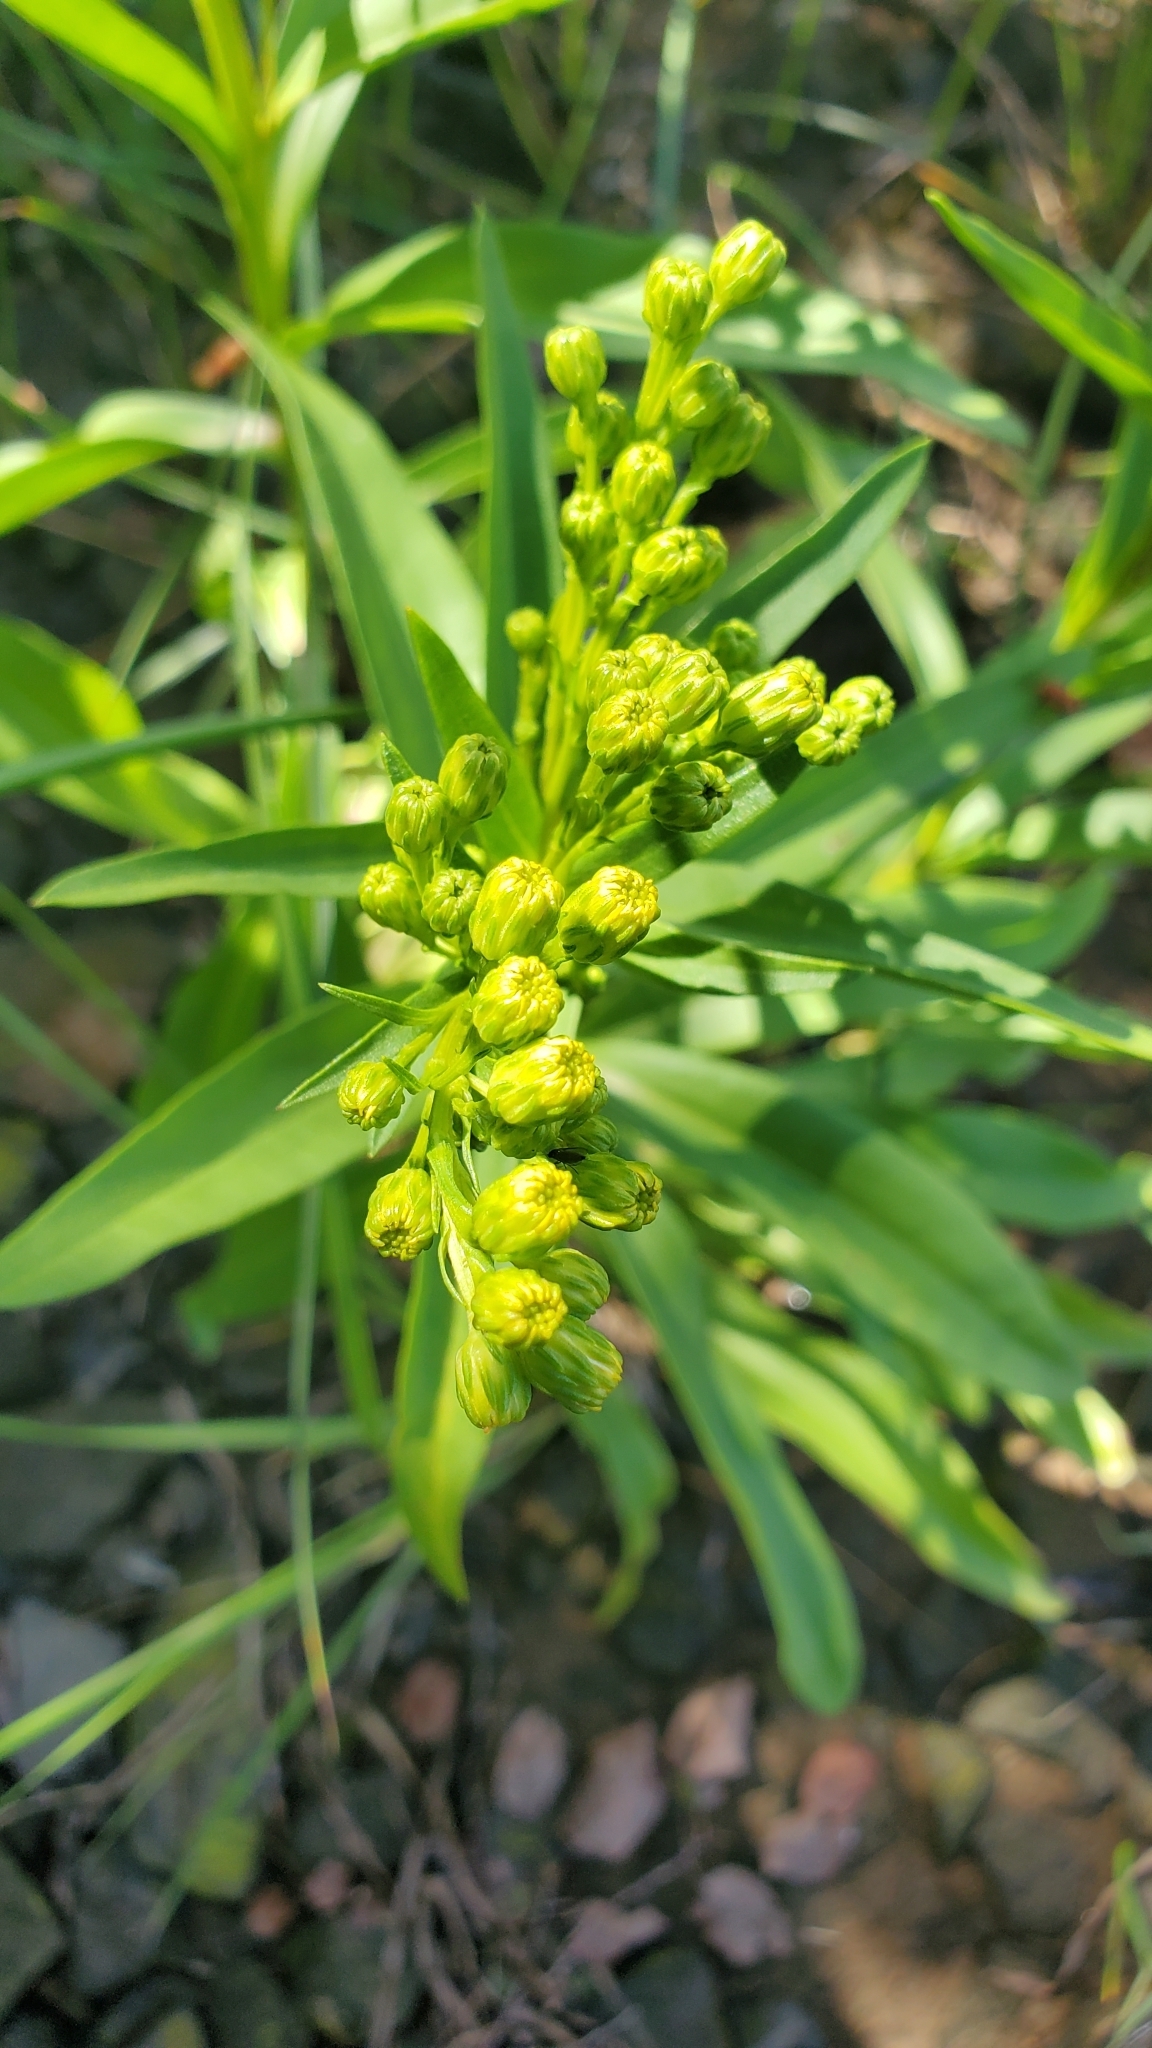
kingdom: Plantae
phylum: Tracheophyta
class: Magnoliopsida
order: Asterales
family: Asteraceae
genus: Solidago
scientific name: Solidago sempervirens
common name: Salt-marsh goldenrod
